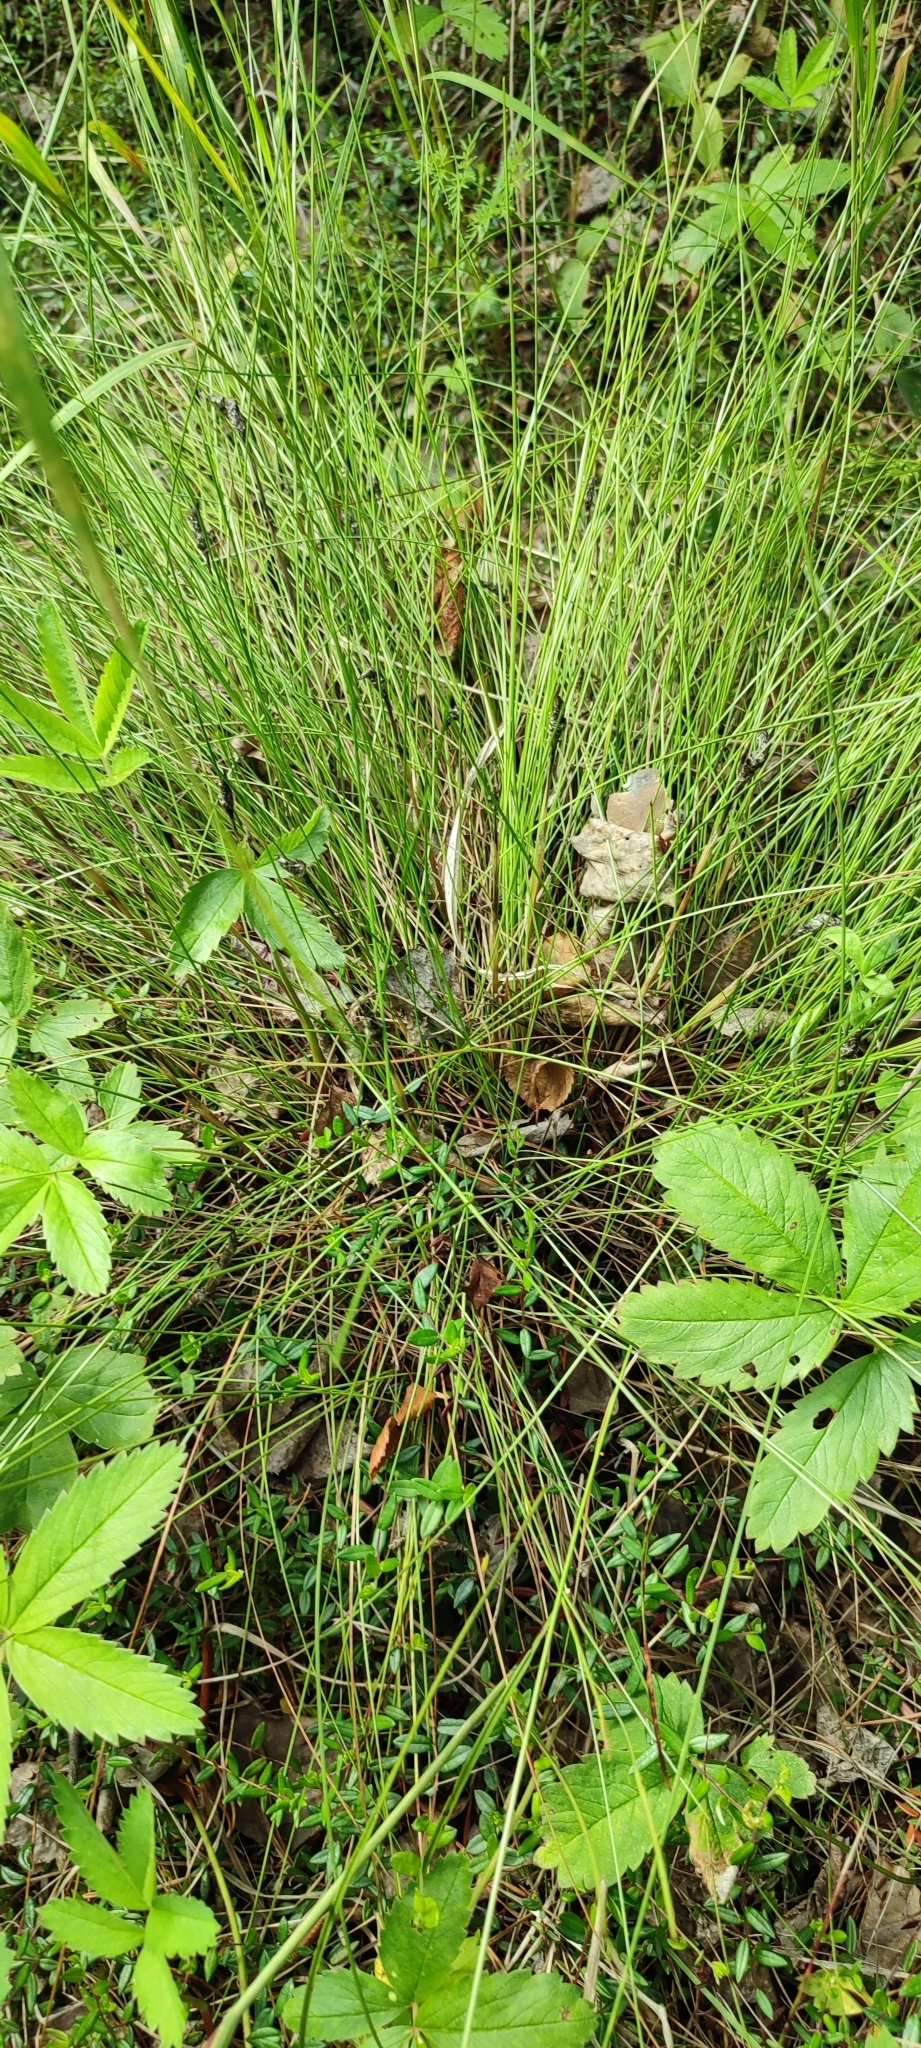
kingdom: Plantae
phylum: Tracheophyta
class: Liliopsida
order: Poales
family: Cyperaceae
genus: Eriophorum
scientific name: Eriophorum vaginatum
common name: Hare's-tail cottongrass
